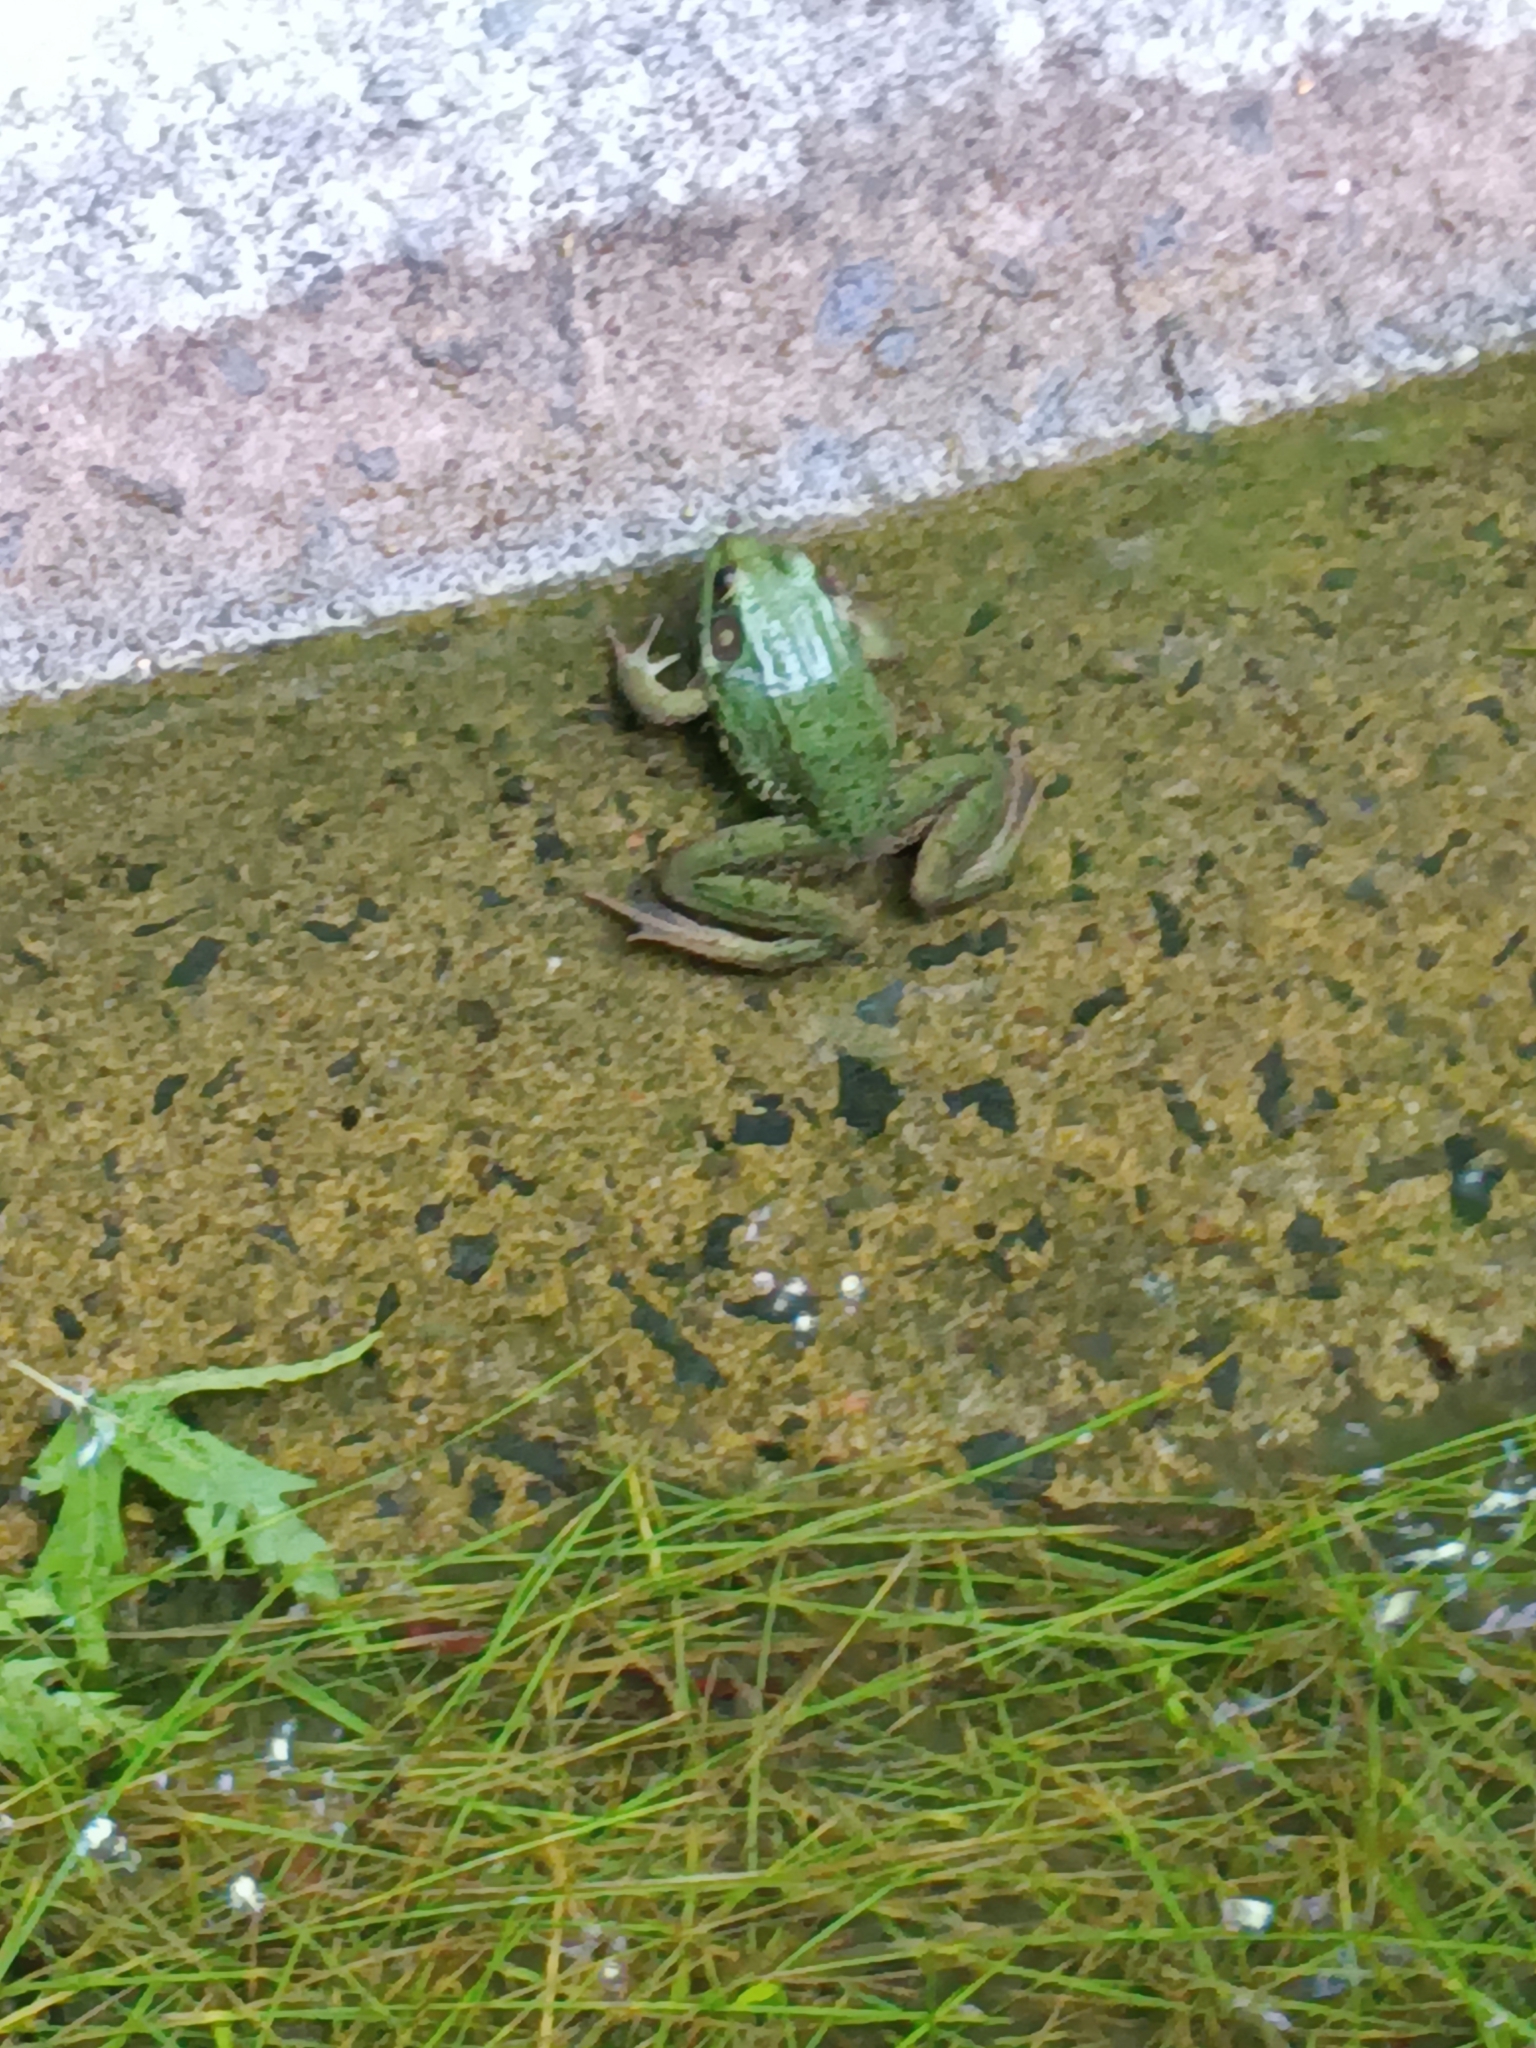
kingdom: Animalia
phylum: Chordata
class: Amphibia
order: Anura
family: Ranidae
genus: Lithobates
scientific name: Lithobates clamitans
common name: Green frog
